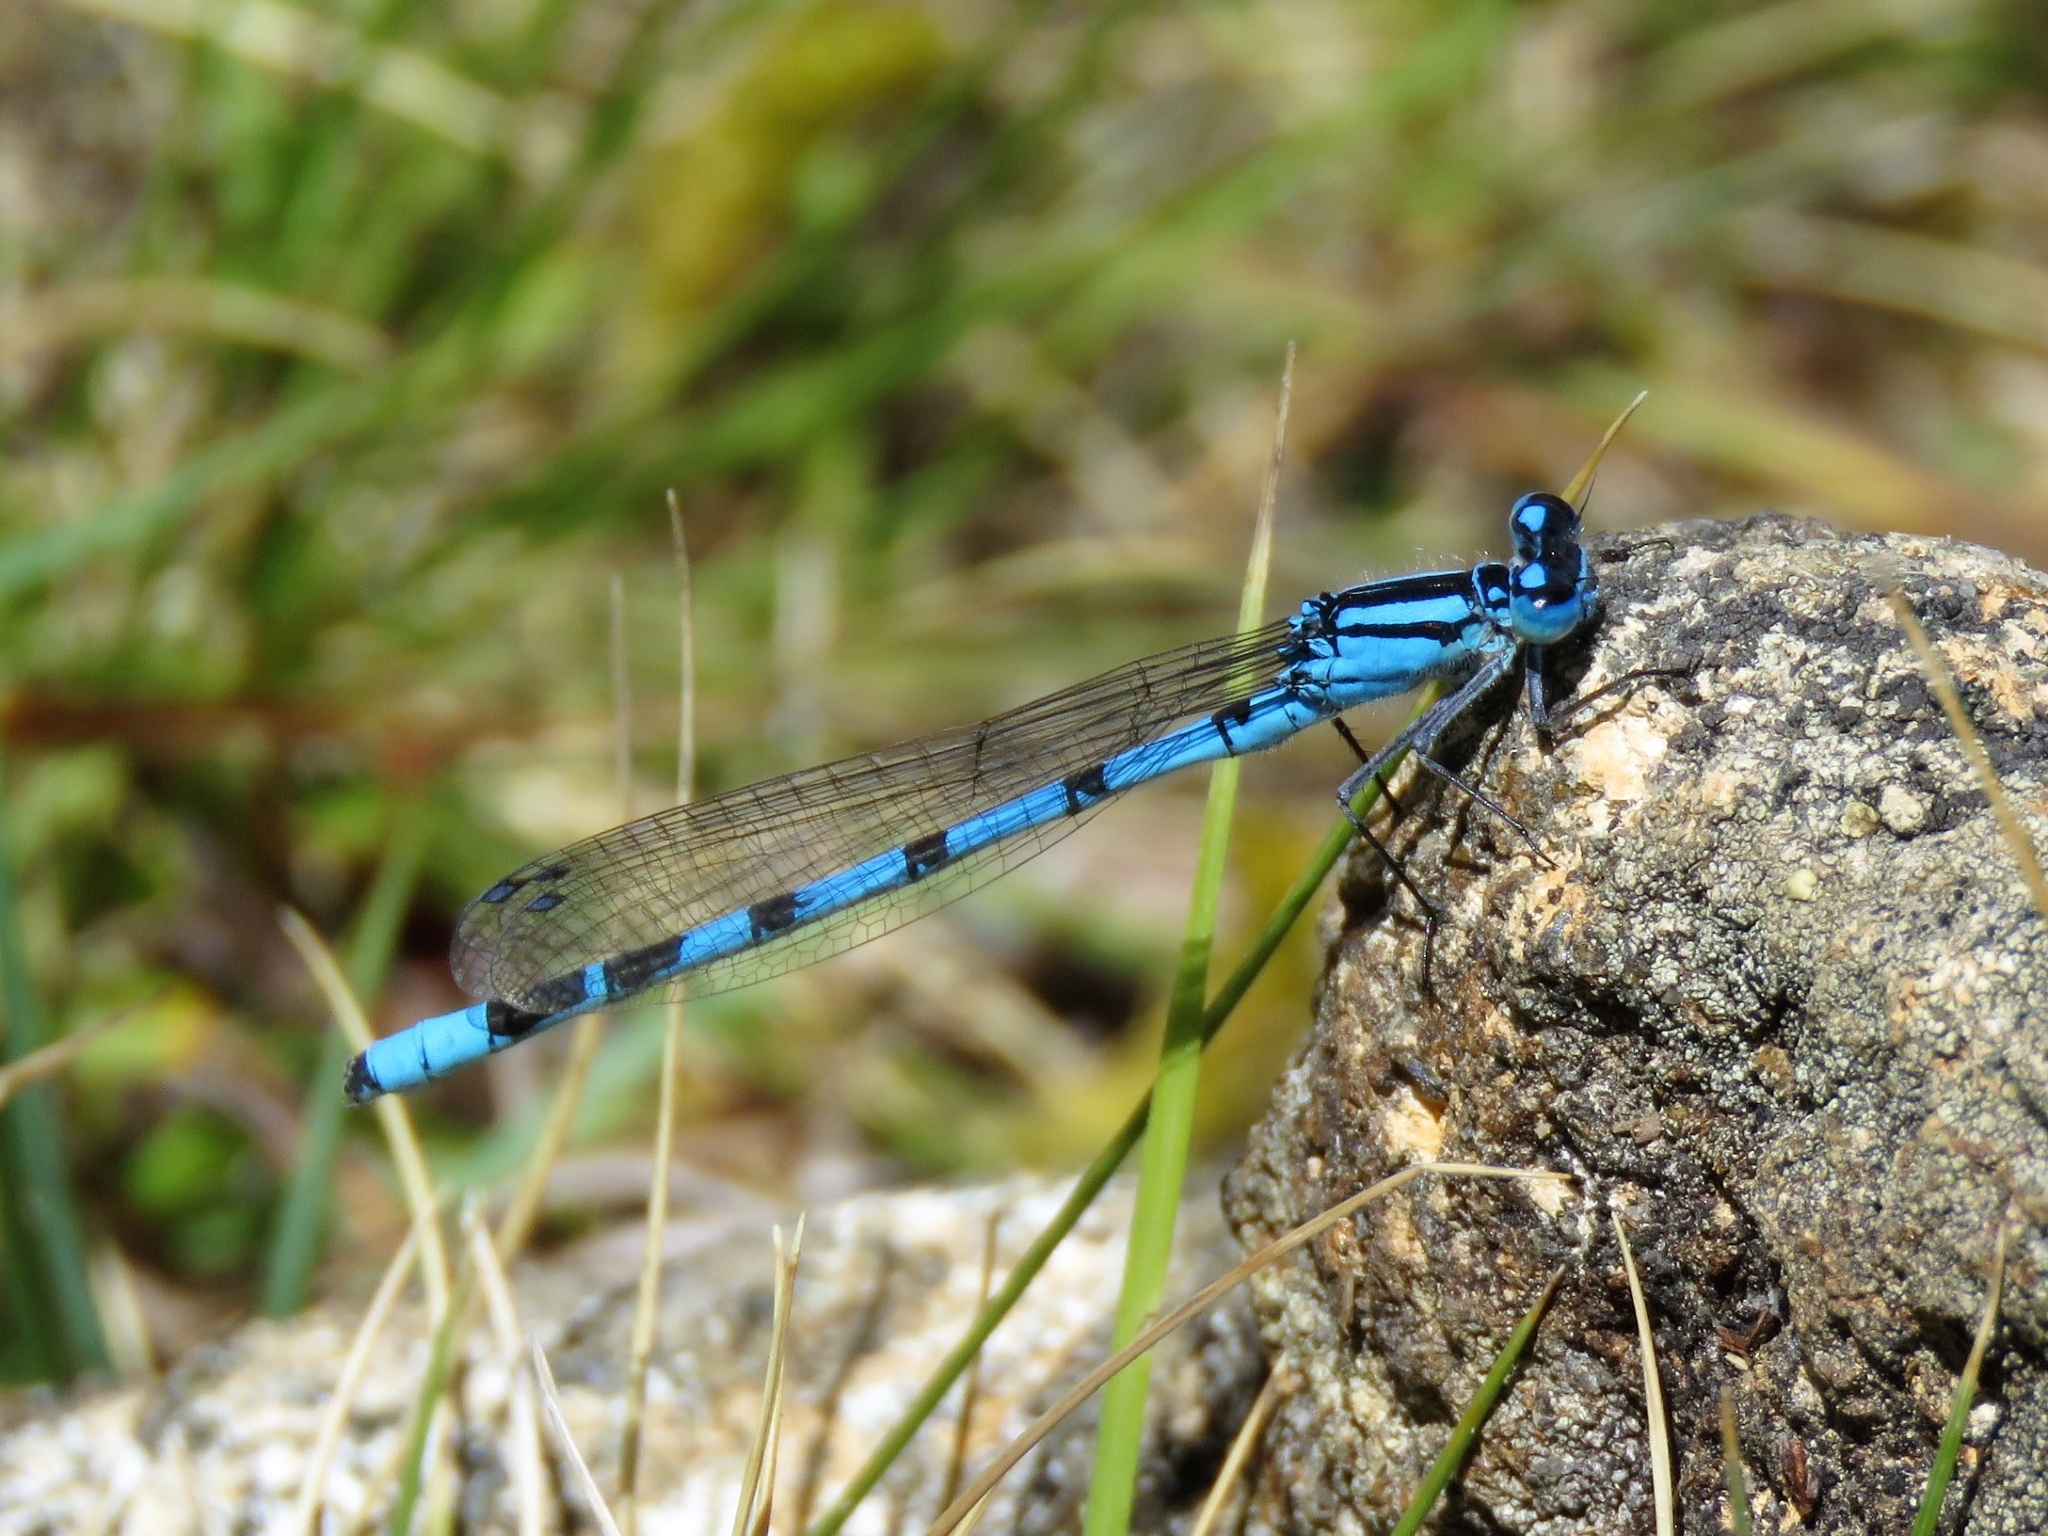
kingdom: Animalia
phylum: Arthropoda
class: Insecta
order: Odonata
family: Coenagrionidae
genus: Enallagma
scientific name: Enallagma cyathigerum
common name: Common blue damselfly
